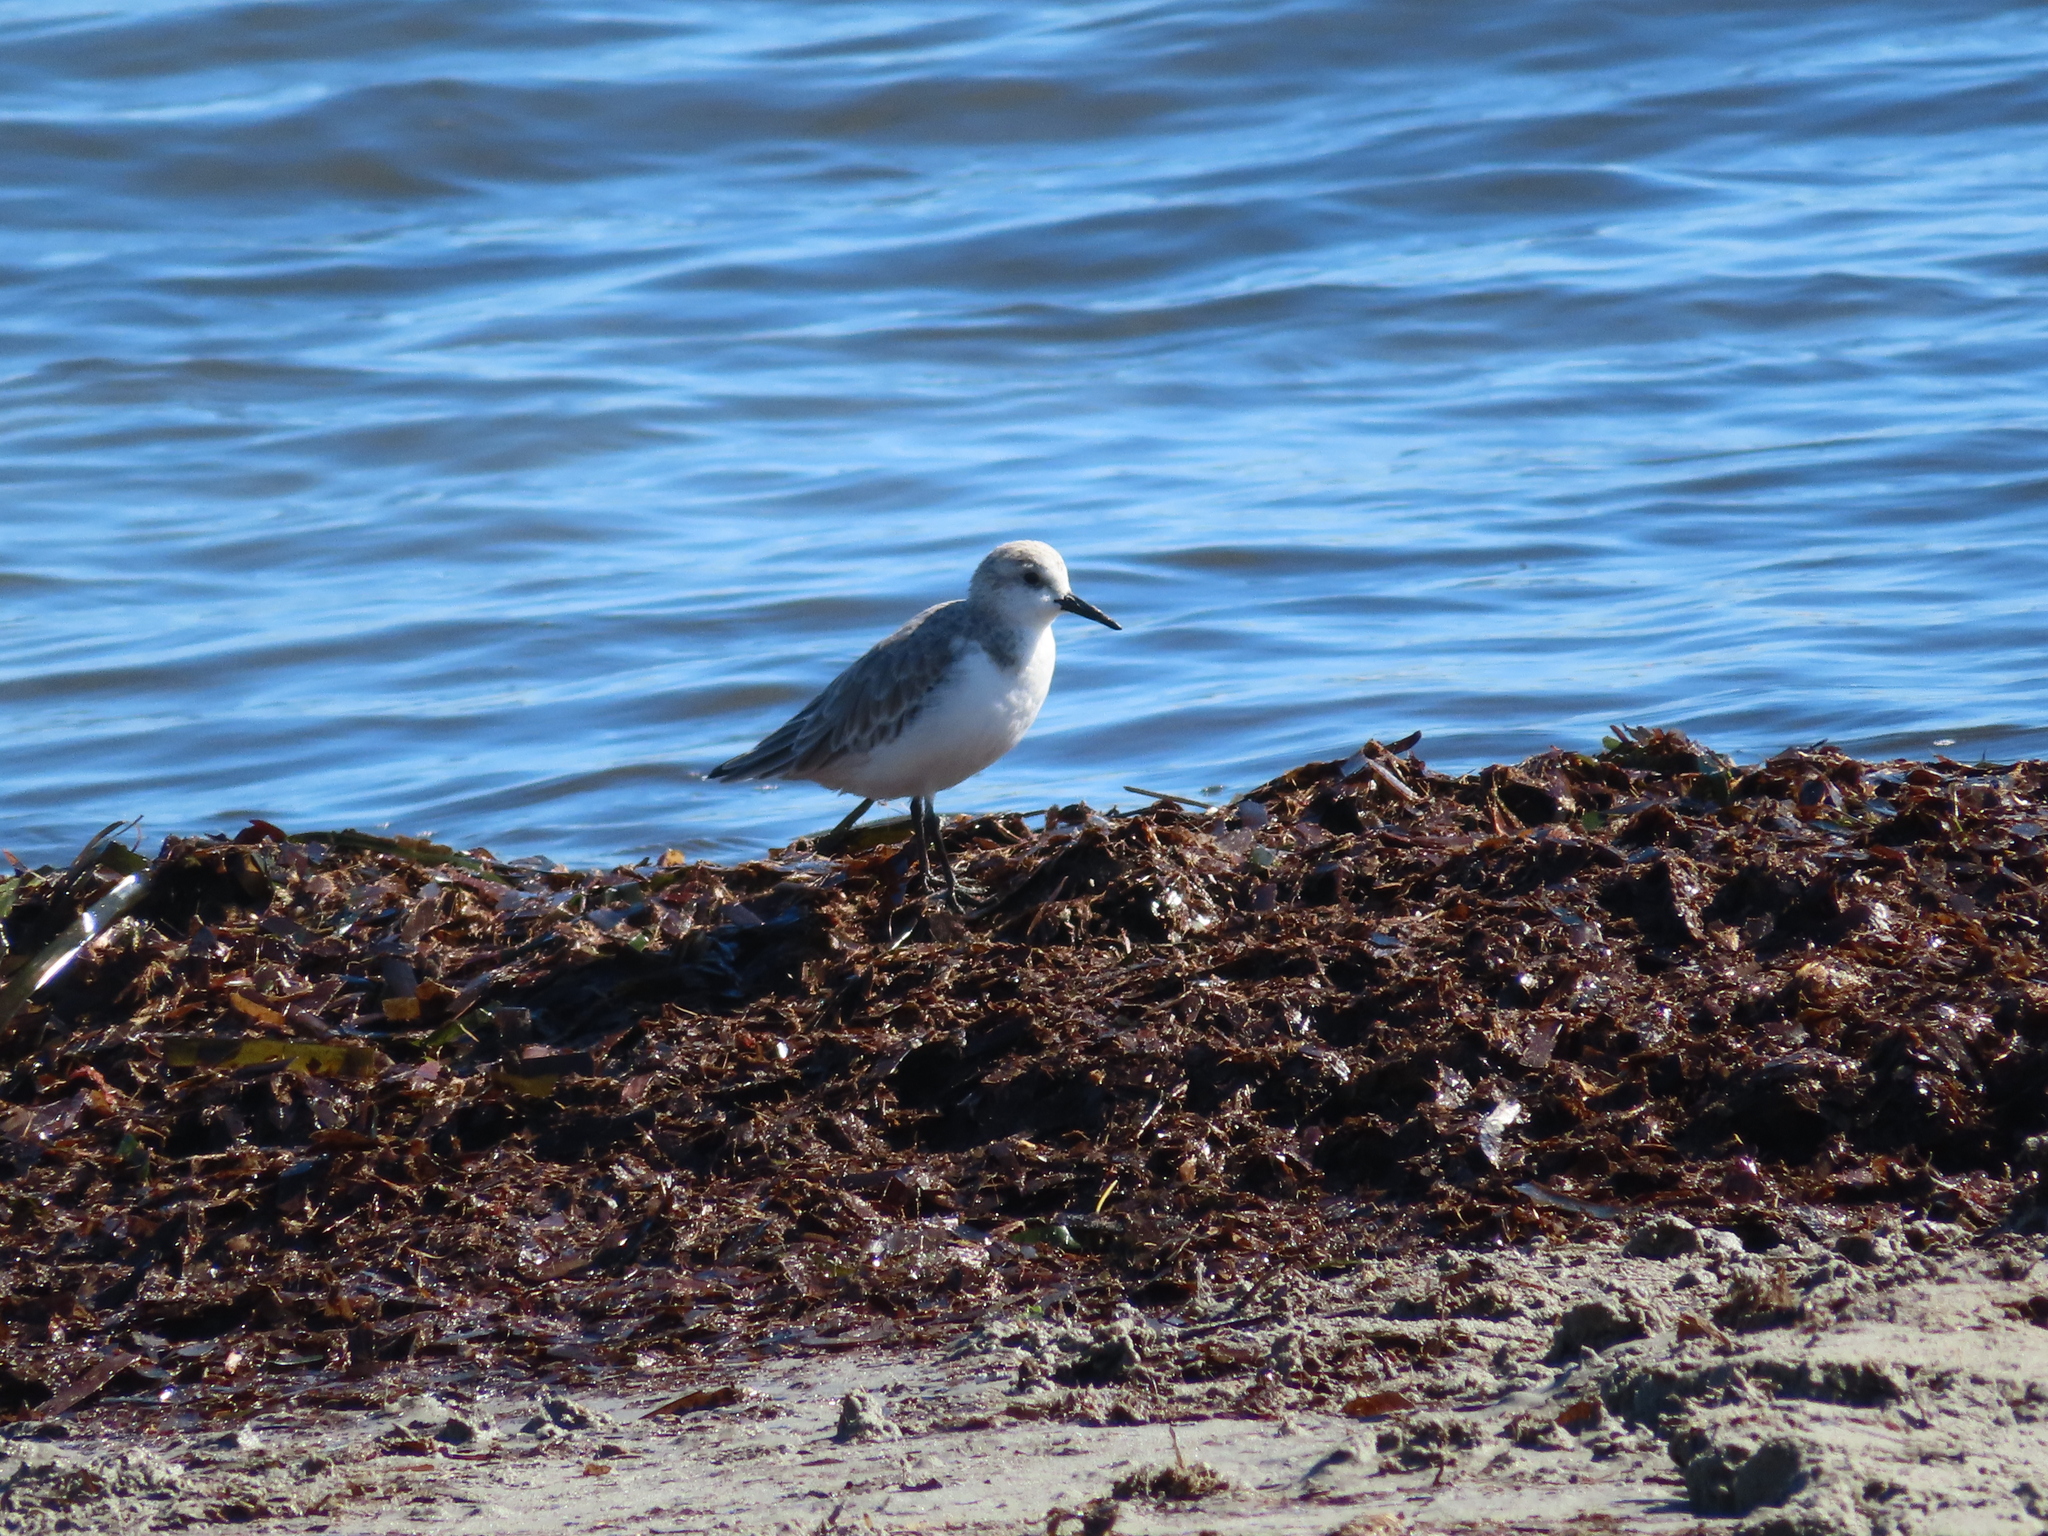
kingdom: Animalia
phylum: Chordata
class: Aves
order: Charadriiformes
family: Scolopacidae
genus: Calidris
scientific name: Calidris alba
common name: Sanderling
